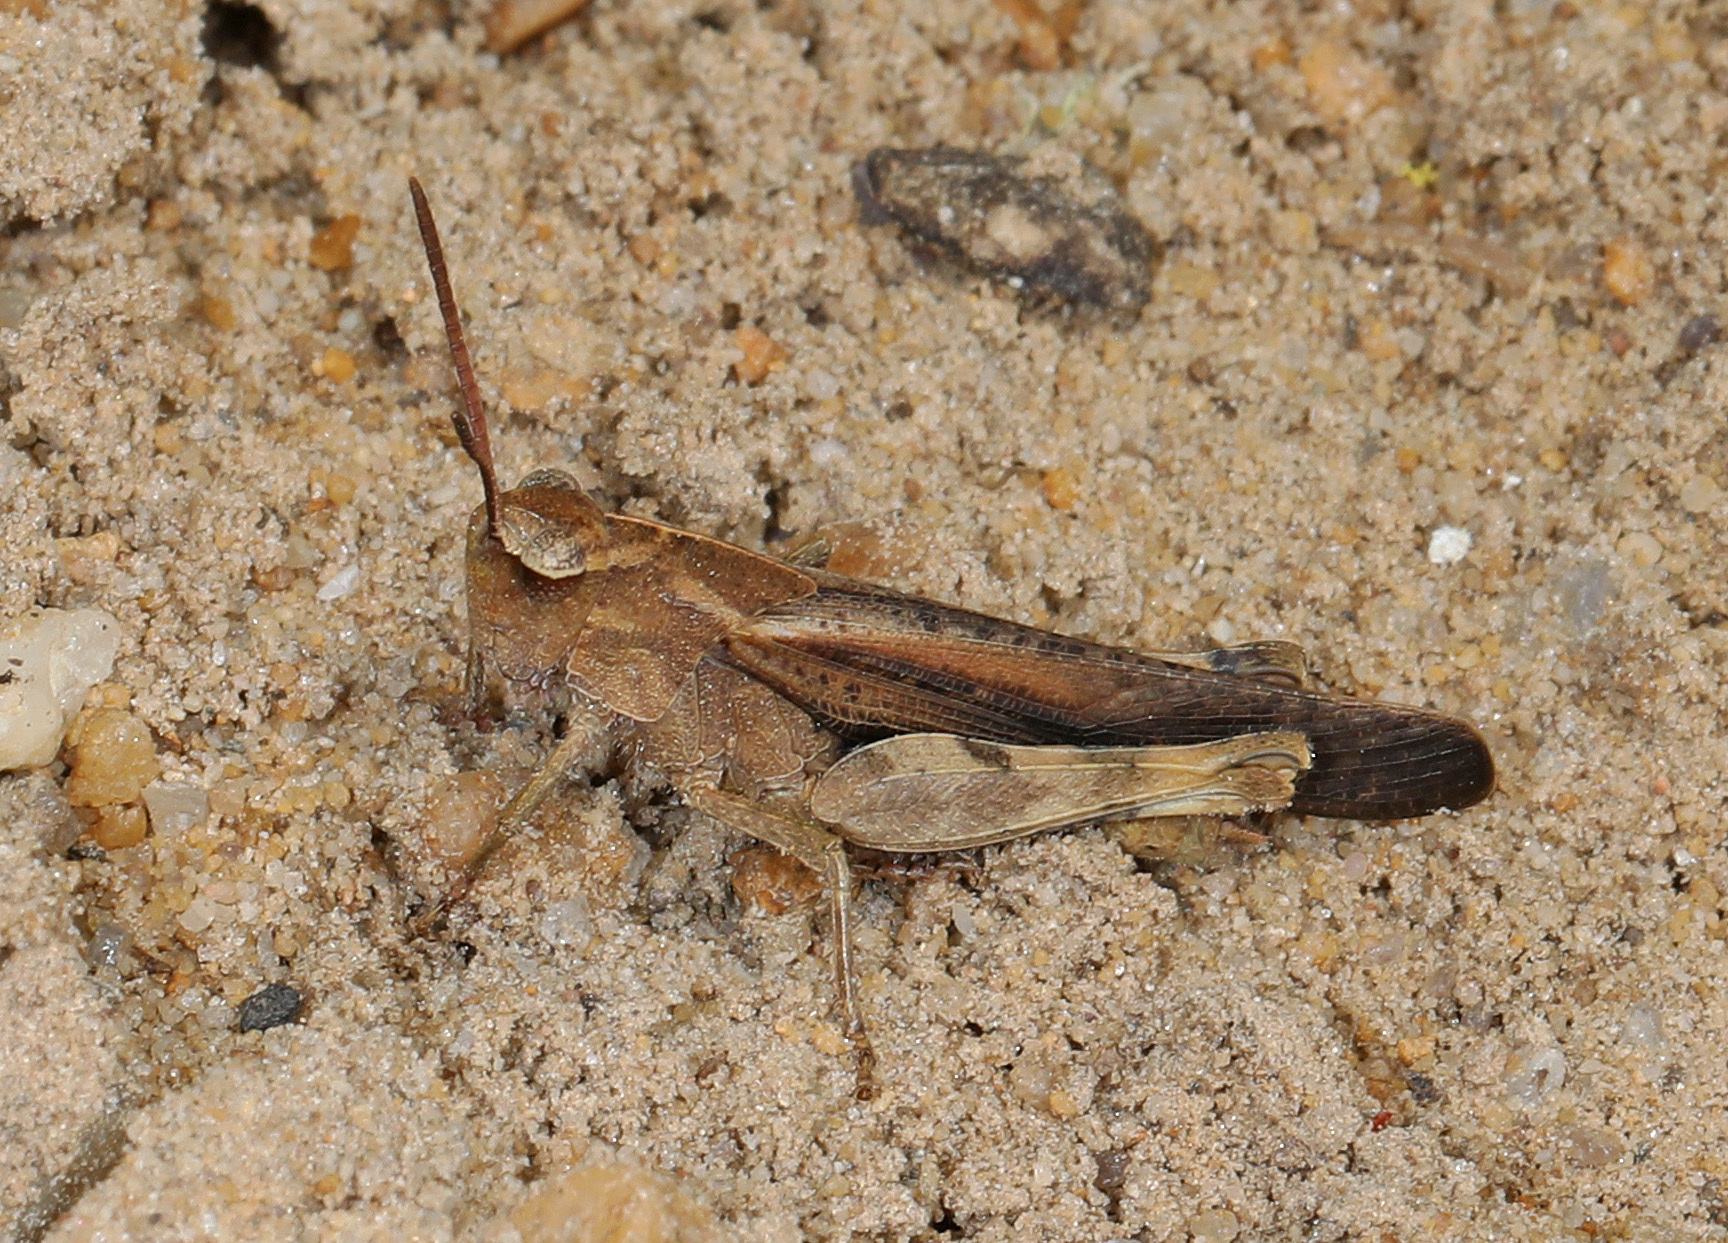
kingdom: Animalia
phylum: Arthropoda
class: Insecta
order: Orthoptera
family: Acrididae
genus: Chortophaga
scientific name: Chortophaga viridifasciata
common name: Green-striped grasshopper
